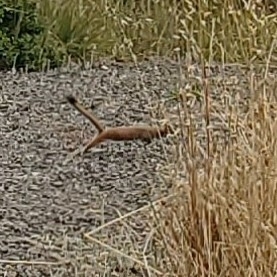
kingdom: Animalia
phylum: Chordata
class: Mammalia
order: Carnivora
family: Mustelidae
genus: Mustela
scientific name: Mustela
